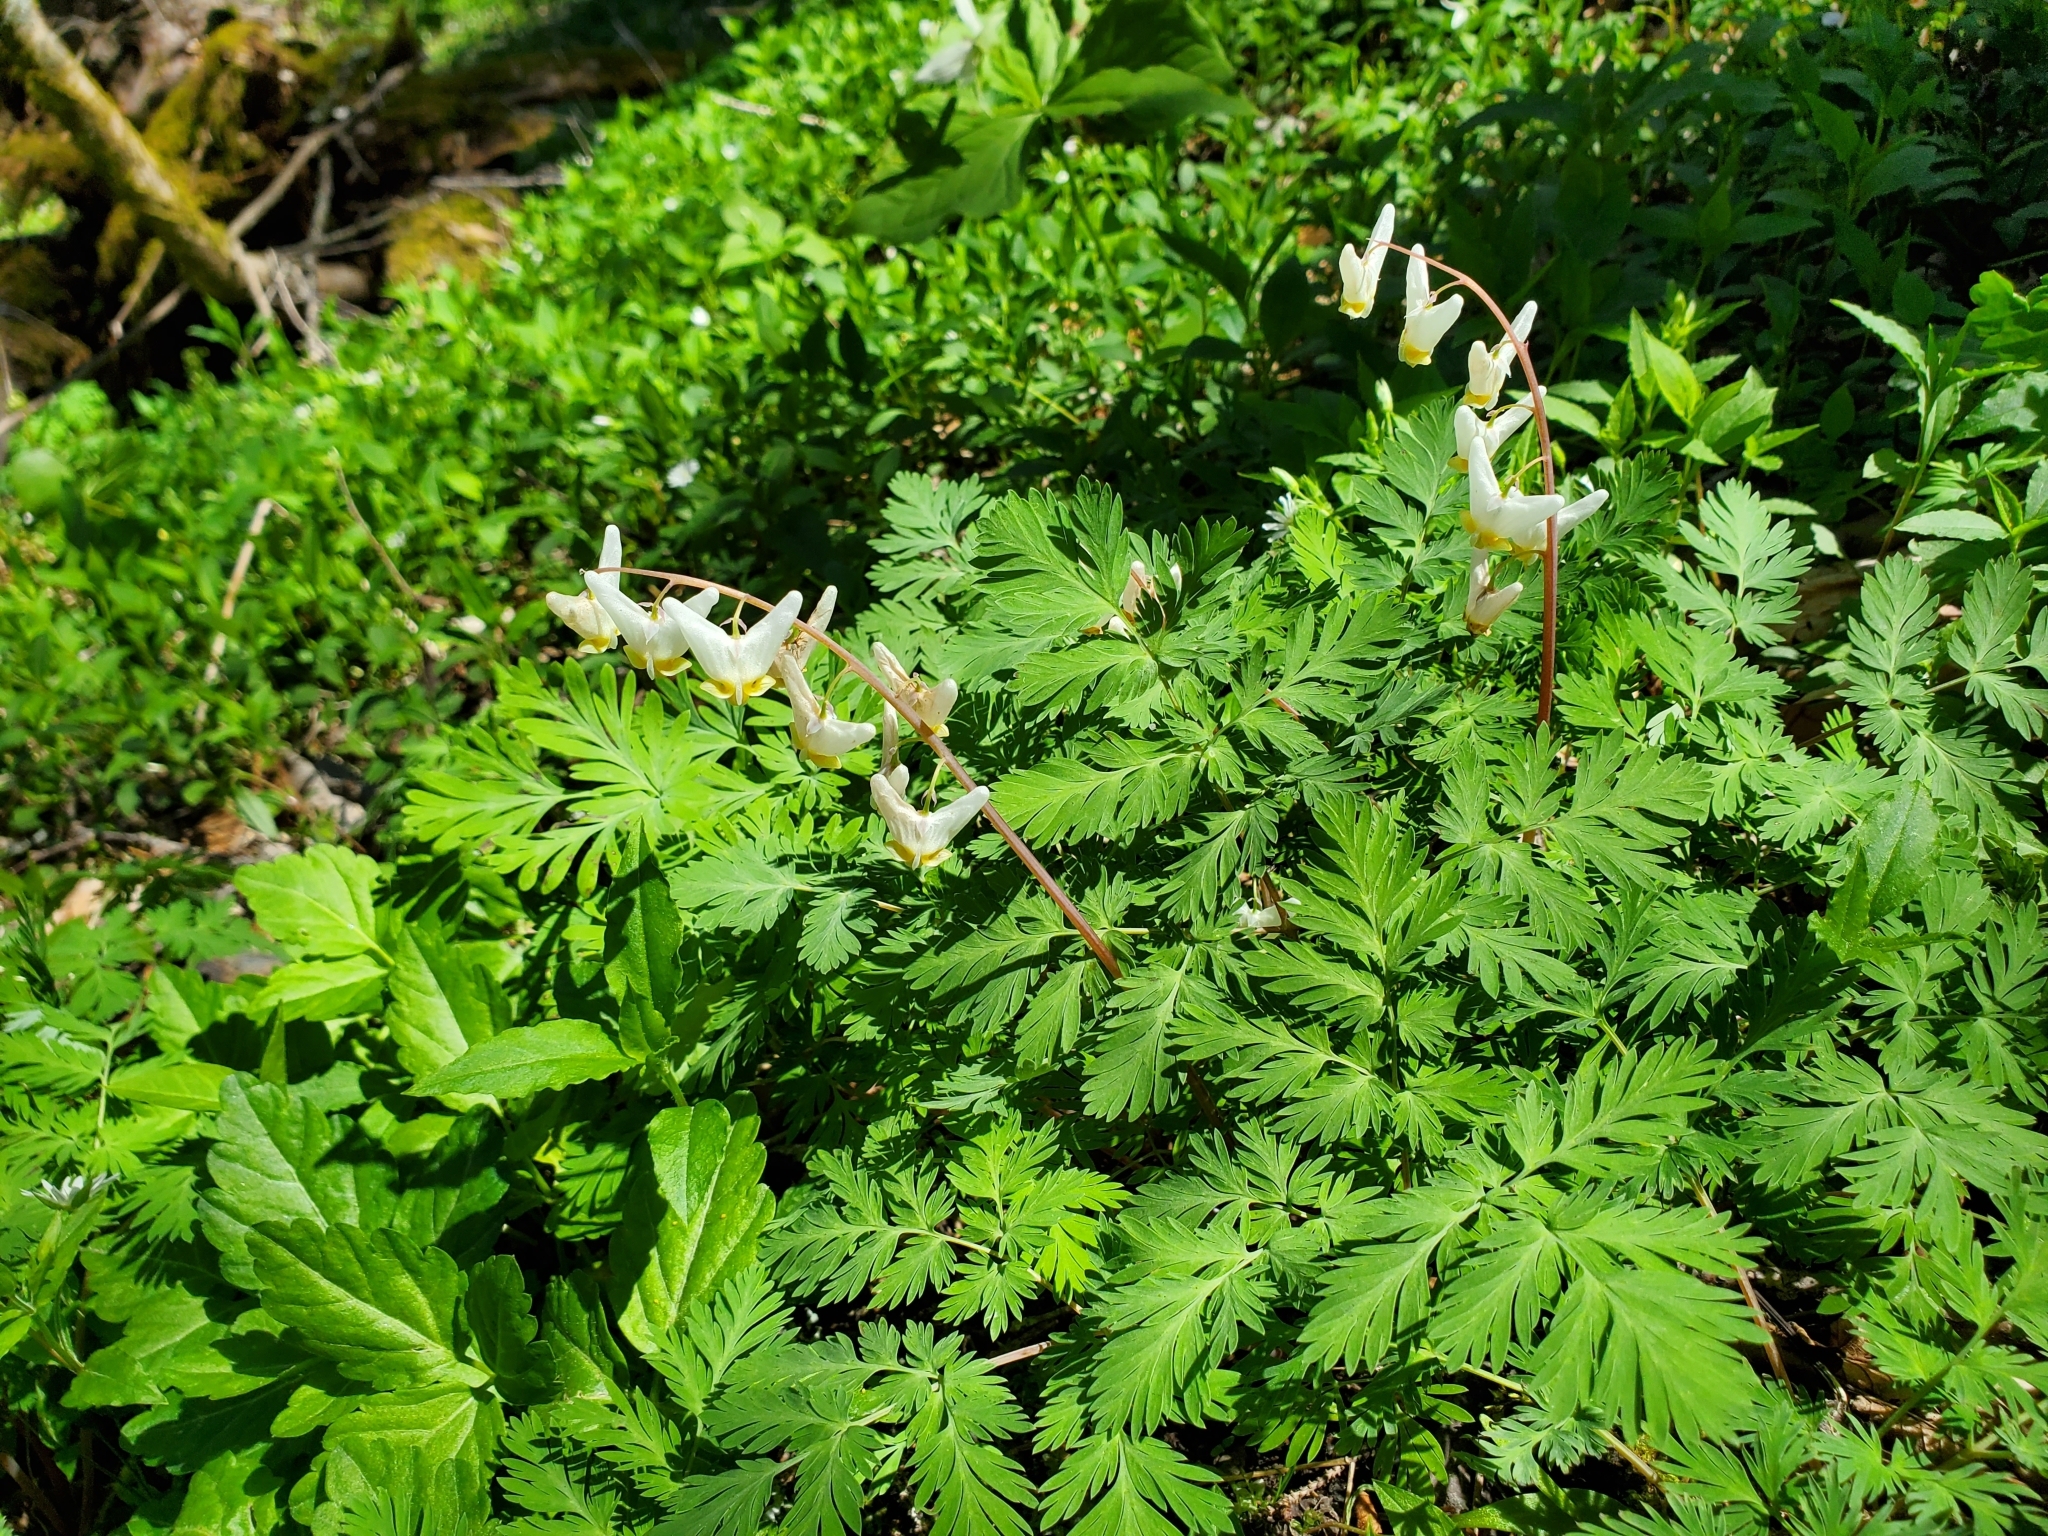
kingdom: Plantae
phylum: Tracheophyta
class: Magnoliopsida
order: Ranunculales
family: Papaveraceae
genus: Dicentra
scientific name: Dicentra cucullaria
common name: Dutchman's breeches
